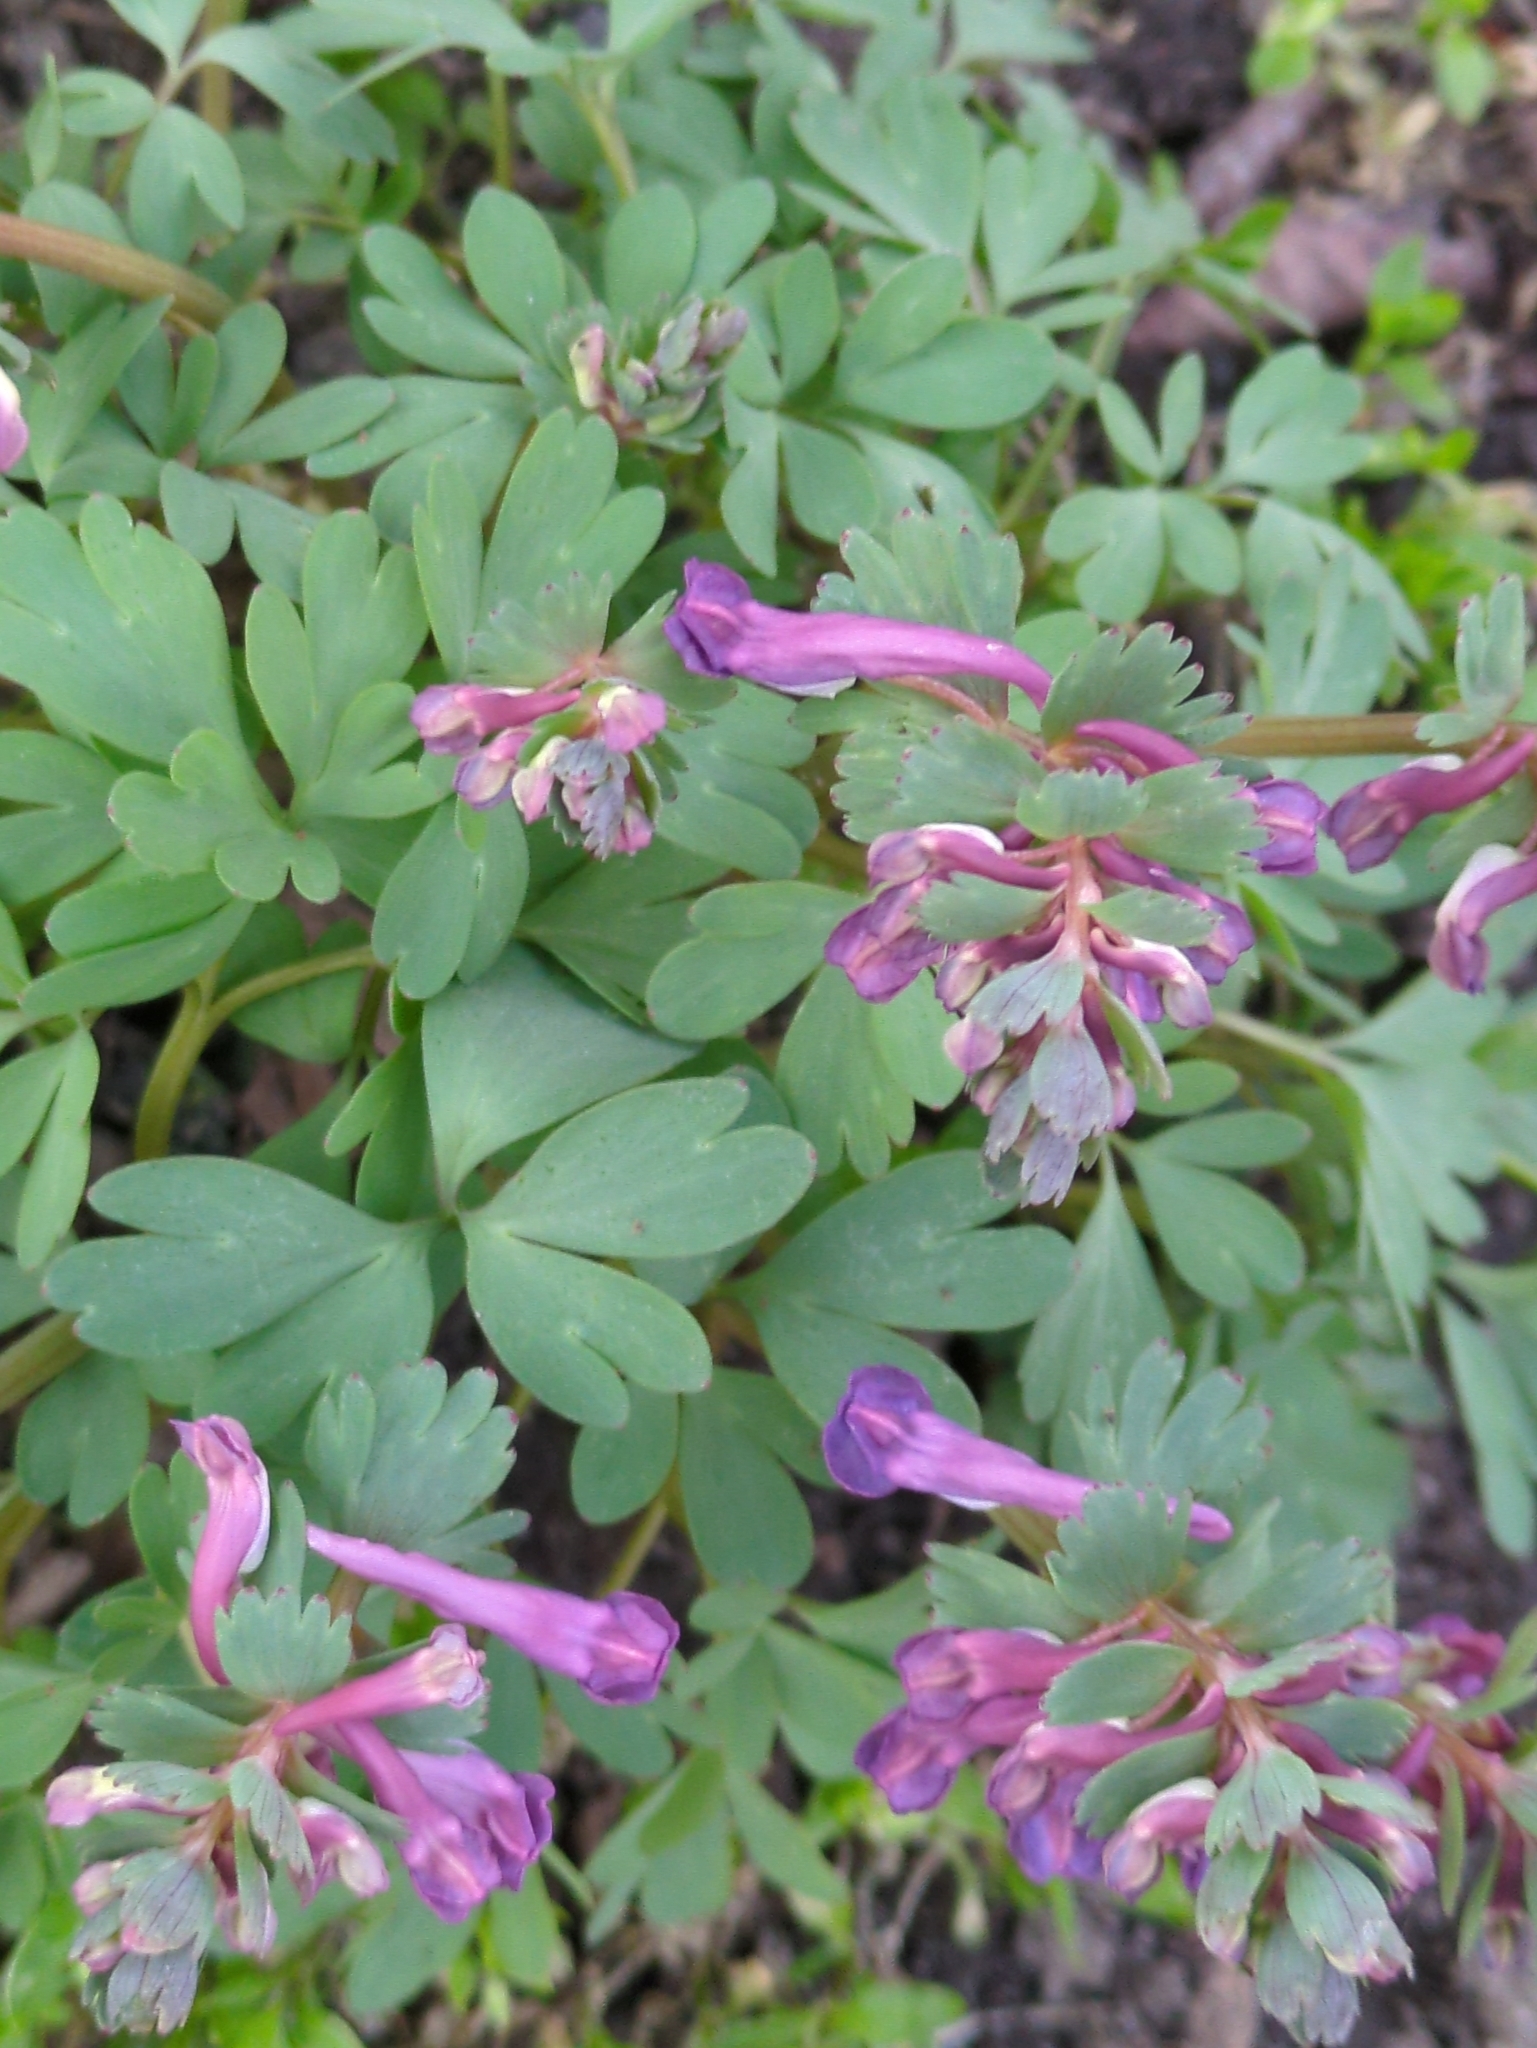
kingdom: Plantae
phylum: Tracheophyta
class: Magnoliopsida
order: Ranunculales
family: Papaveraceae
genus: Corydalis
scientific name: Corydalis solida
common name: Bird-in-a-bush
